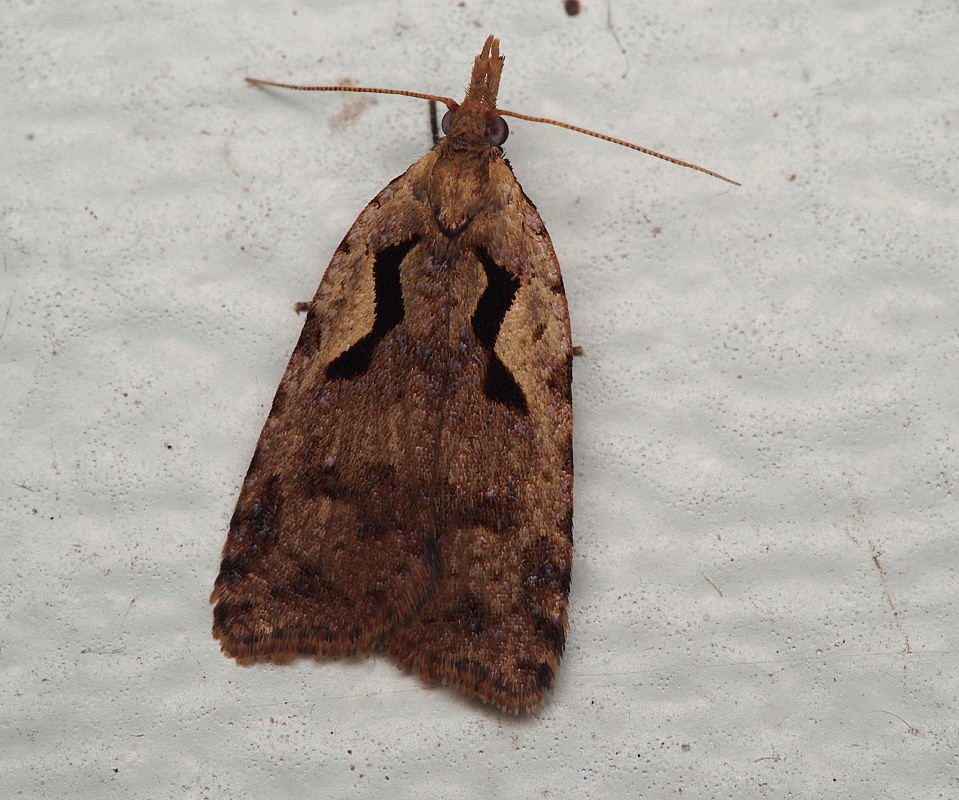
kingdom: Animalia
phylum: Arthropoda
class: Insecta
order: Lepidoptera
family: Tortricidae
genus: Cnephasia
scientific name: Cnephasia jactatana
